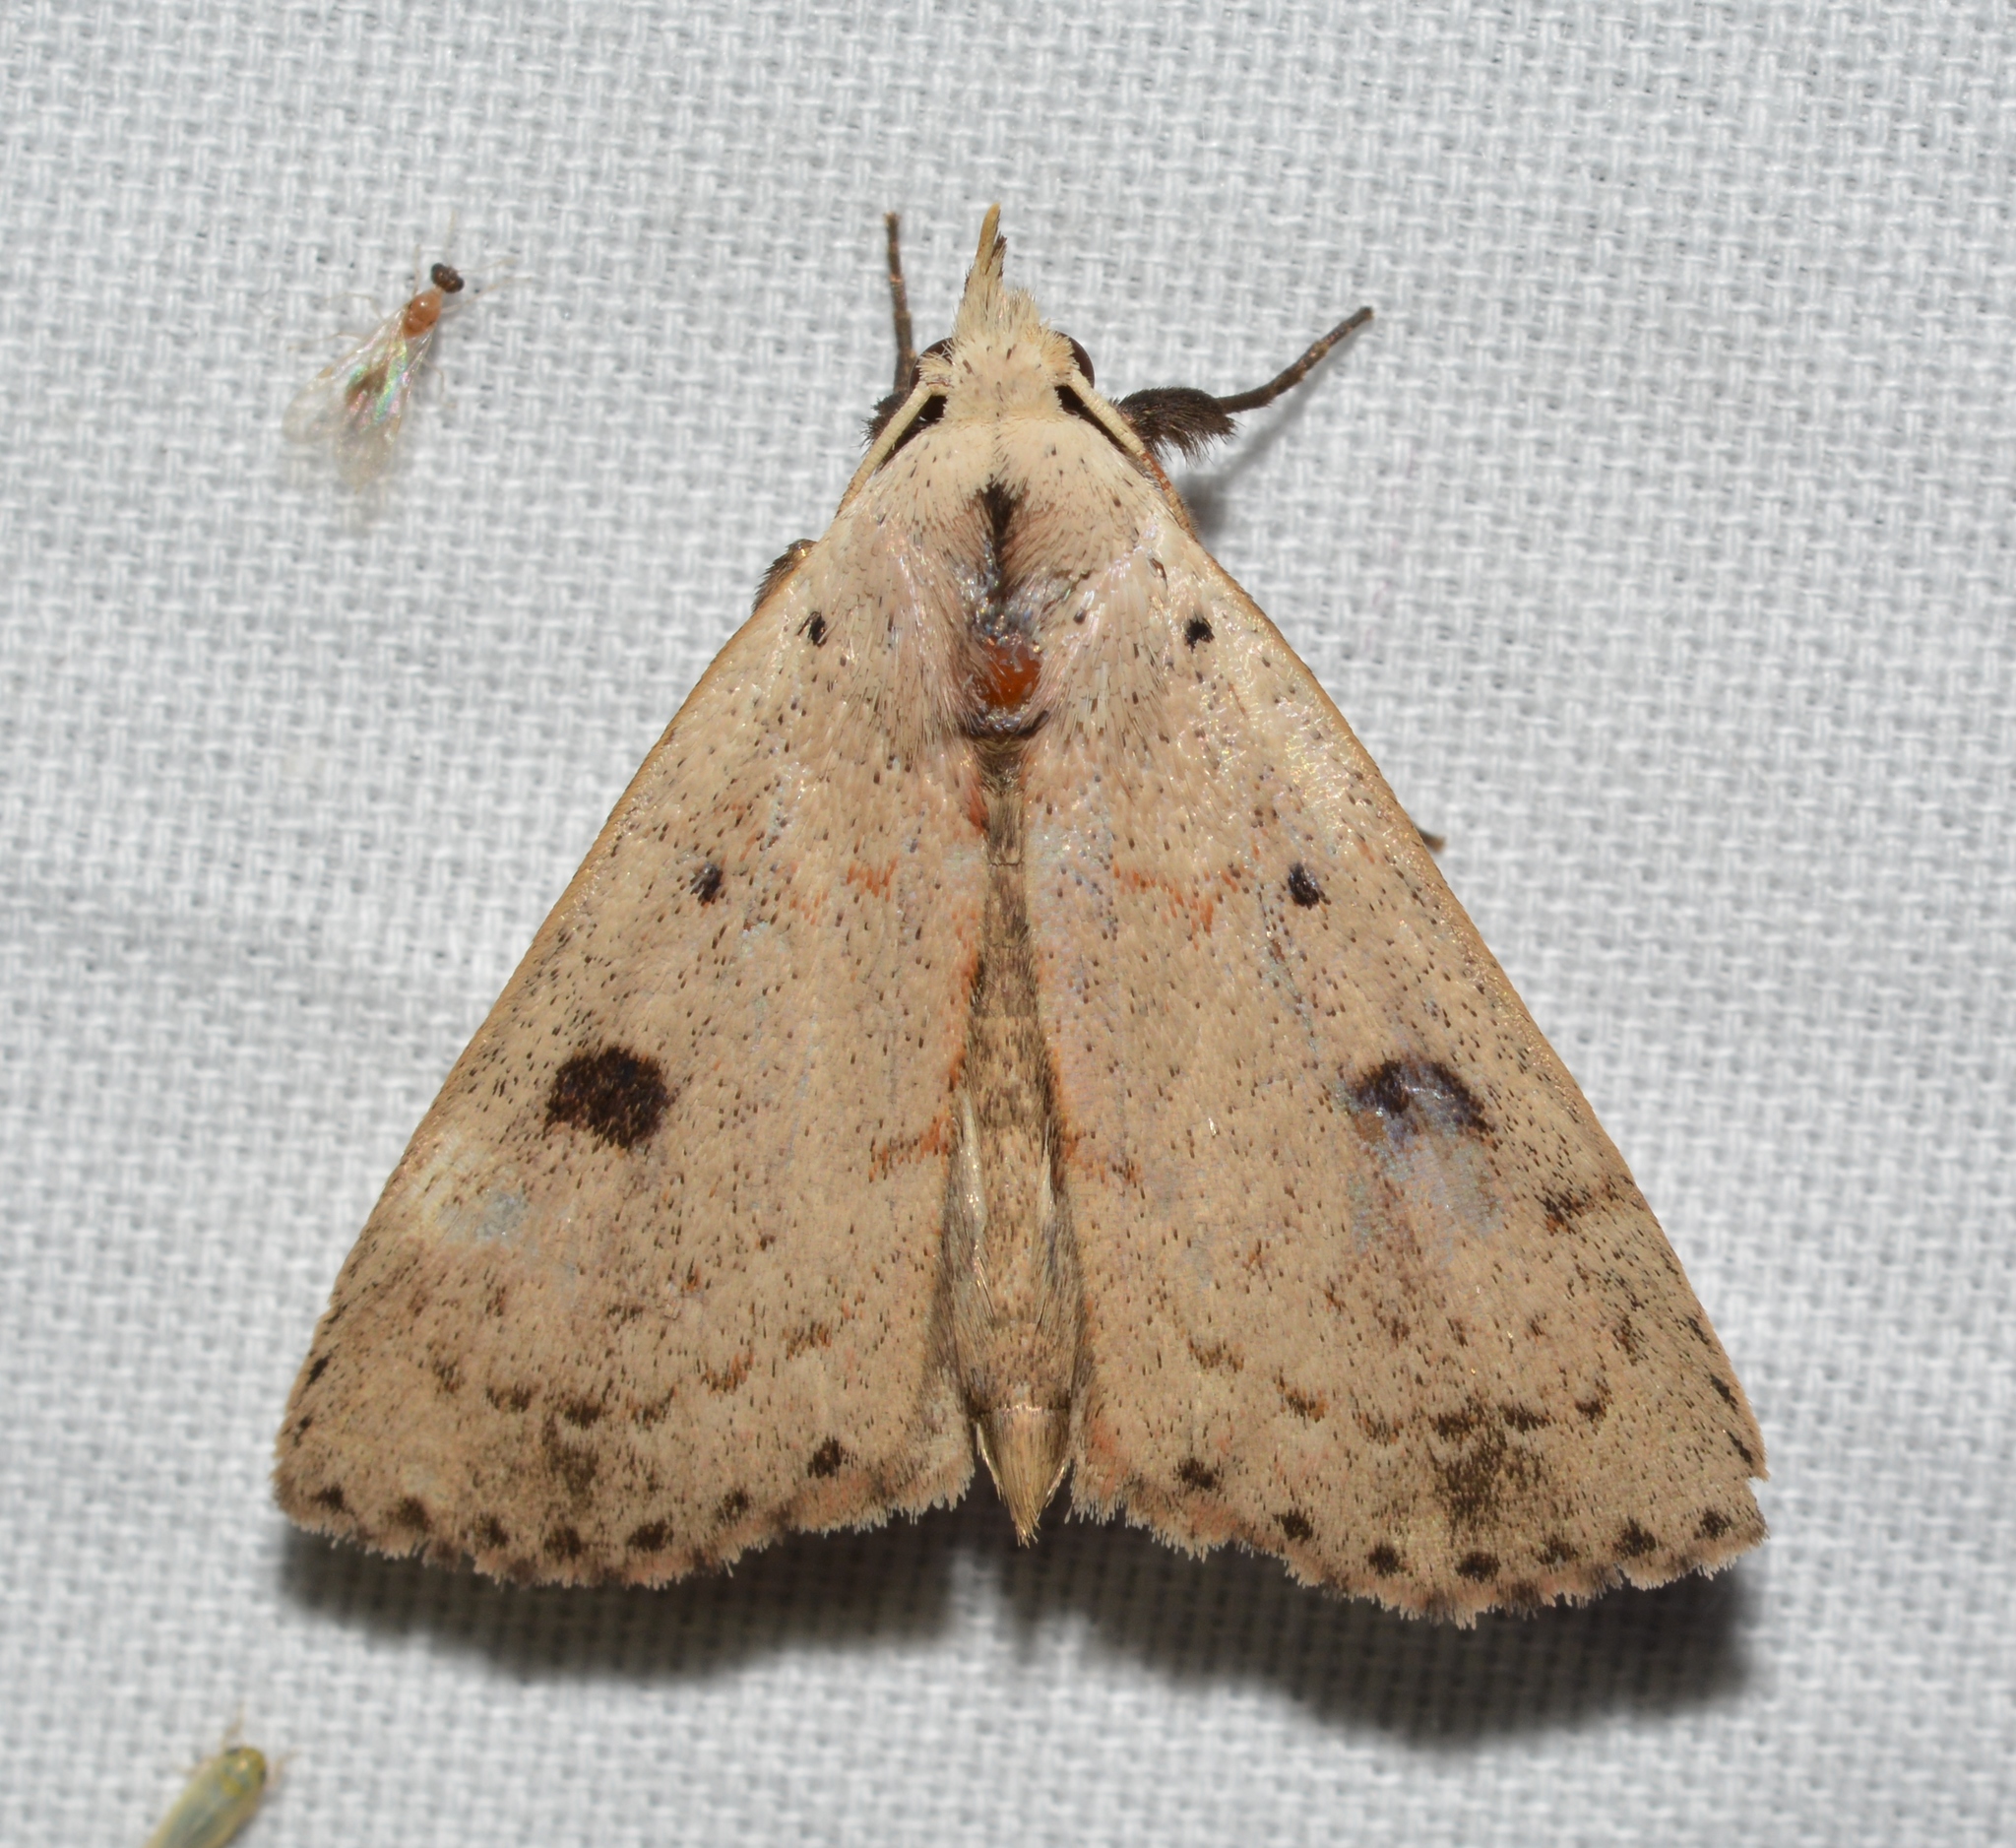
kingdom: Animalia
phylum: Arthropoda
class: Insecta
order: Lepidoptera
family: Erebidae
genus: Scolecocampa
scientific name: Scolecocampa liburna
